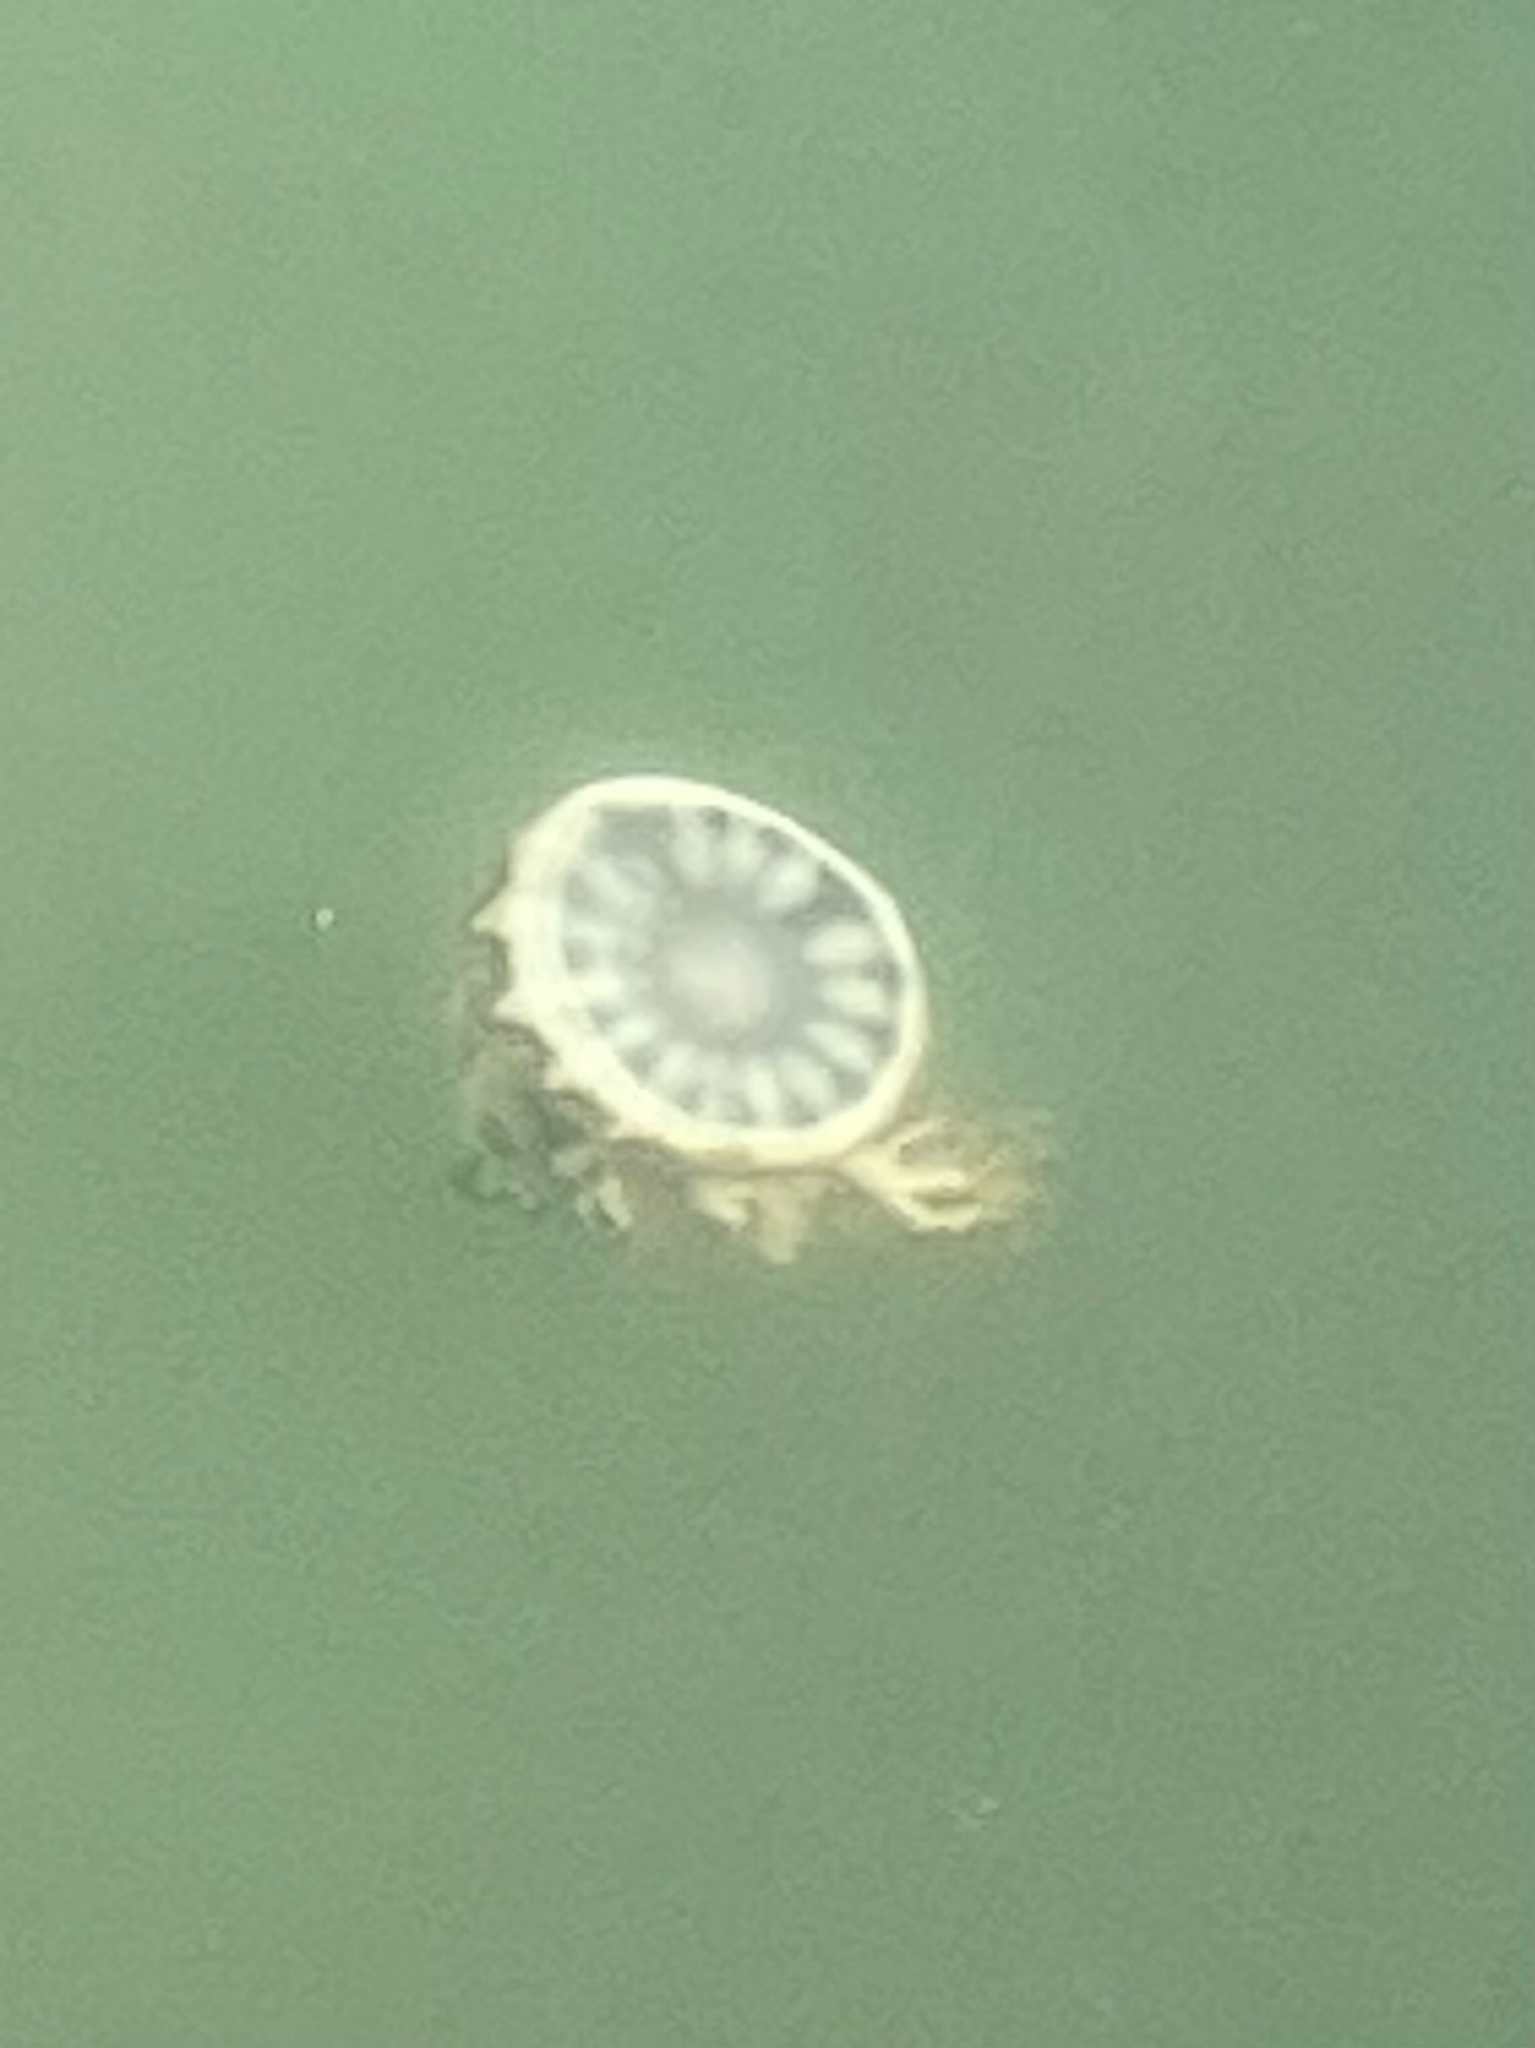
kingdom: Animalia
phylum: Cnidaria
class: Scyphozoa
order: Rhizostomeae
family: Cassiopeidae
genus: Cassiopea
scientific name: Cassiopea andromeda
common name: Upside-down jellyfish
